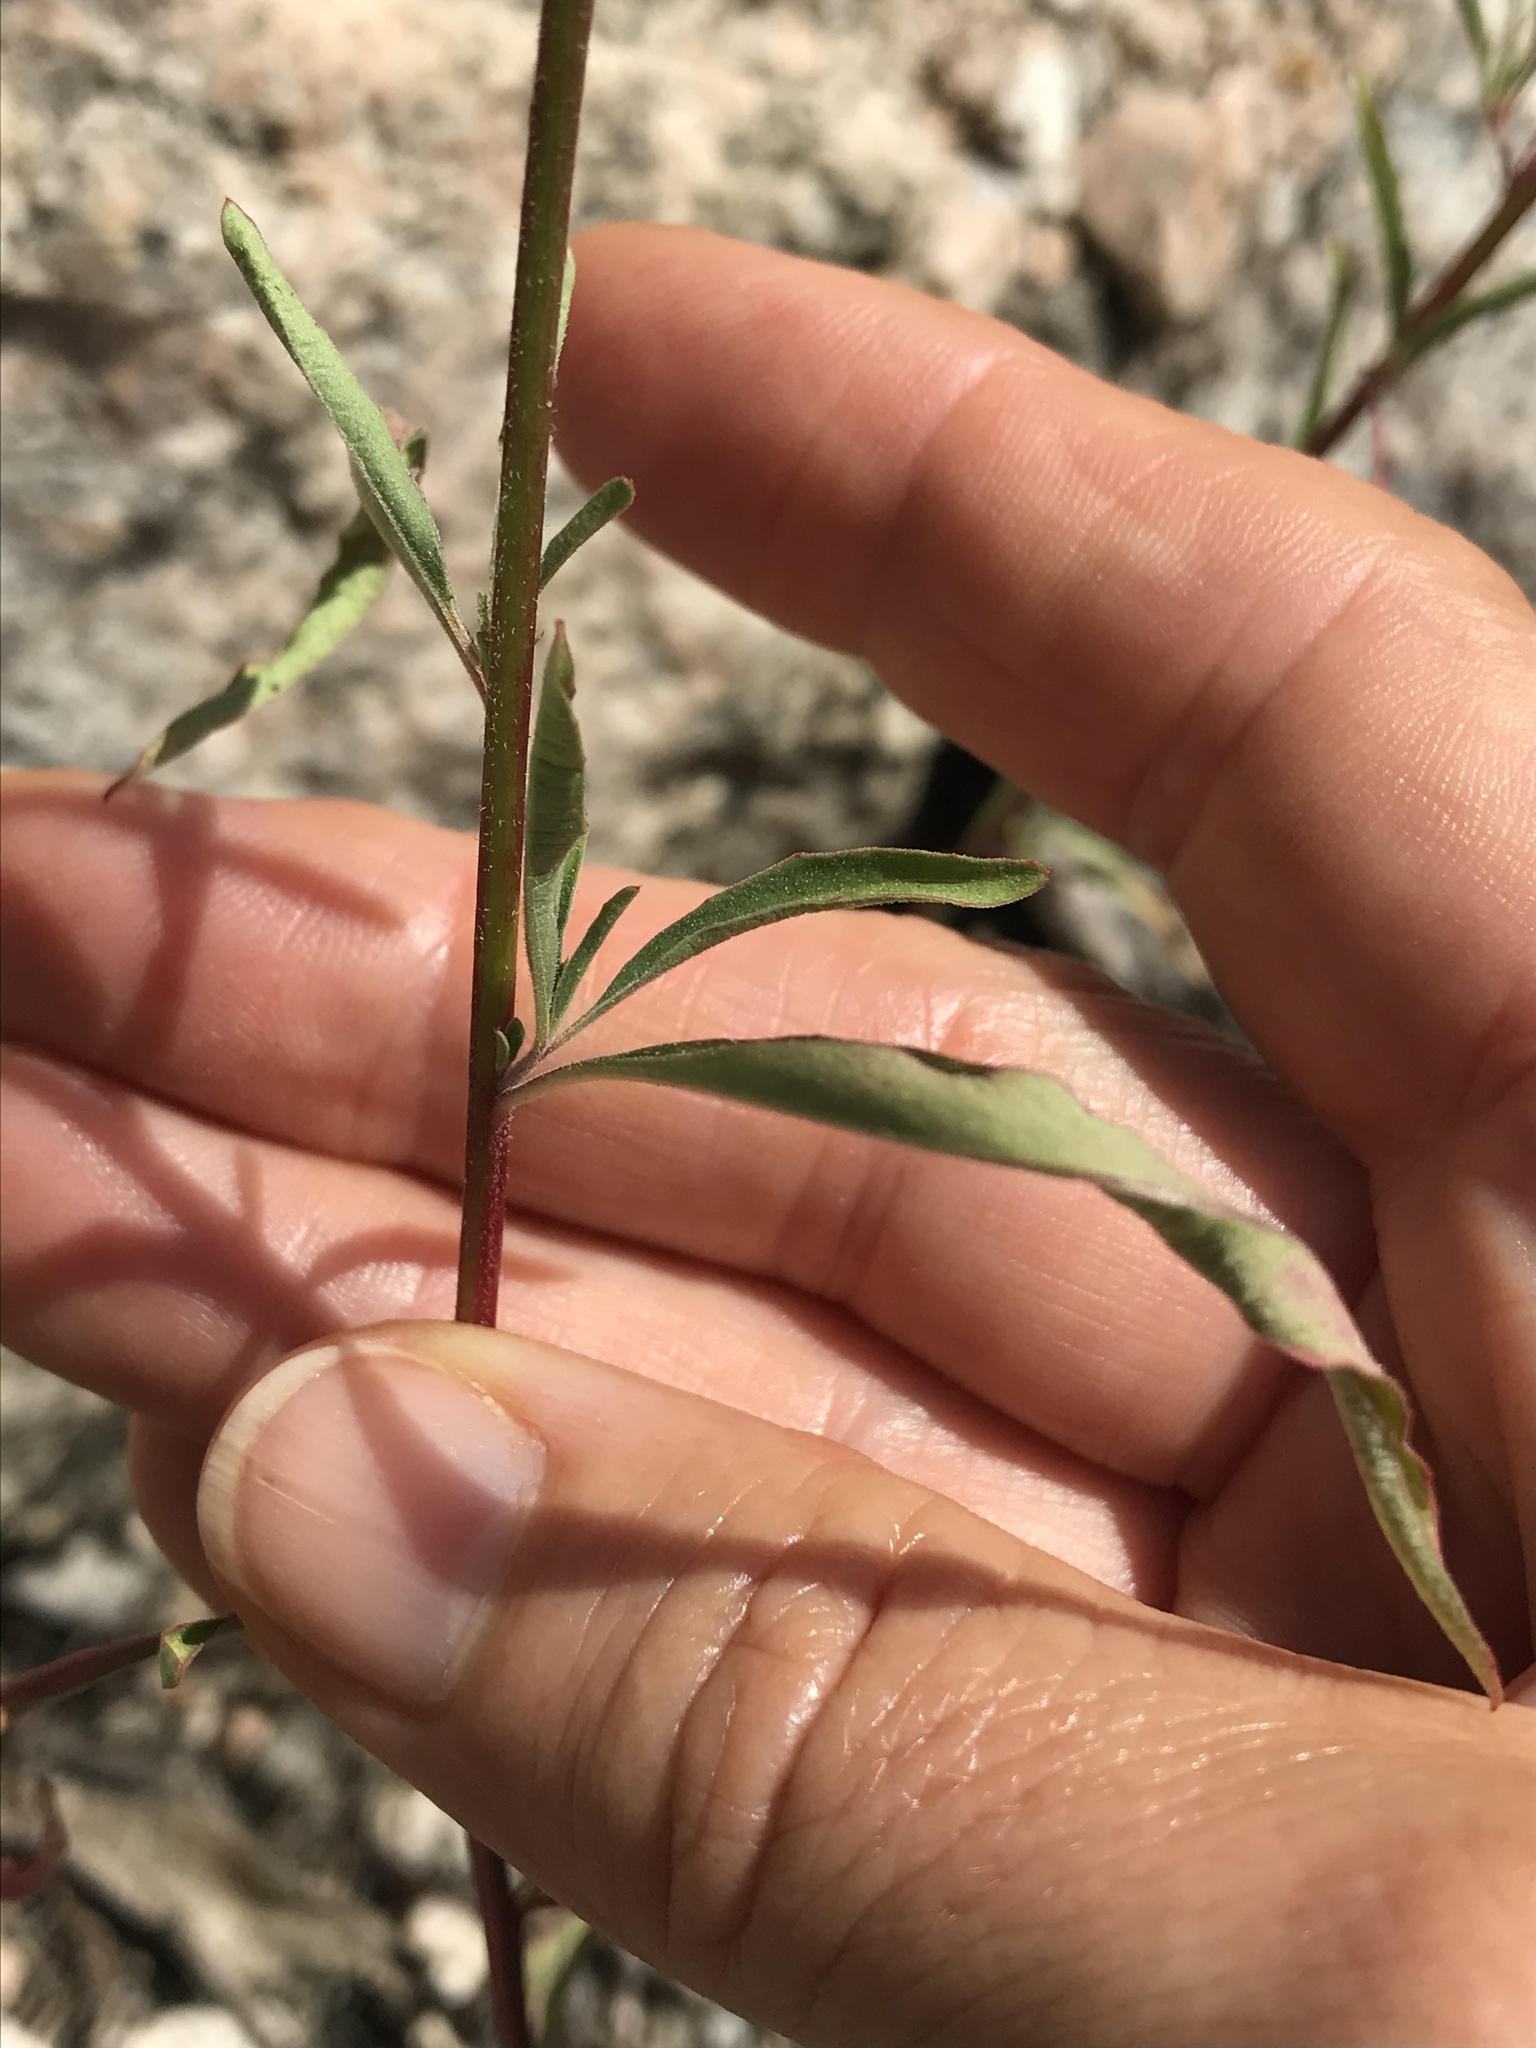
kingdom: Plantae
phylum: Tracheophyta
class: Magnoliopsida
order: Myrtales
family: Onagraceae
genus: Clarkia
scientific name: Clarkia dudleyana
